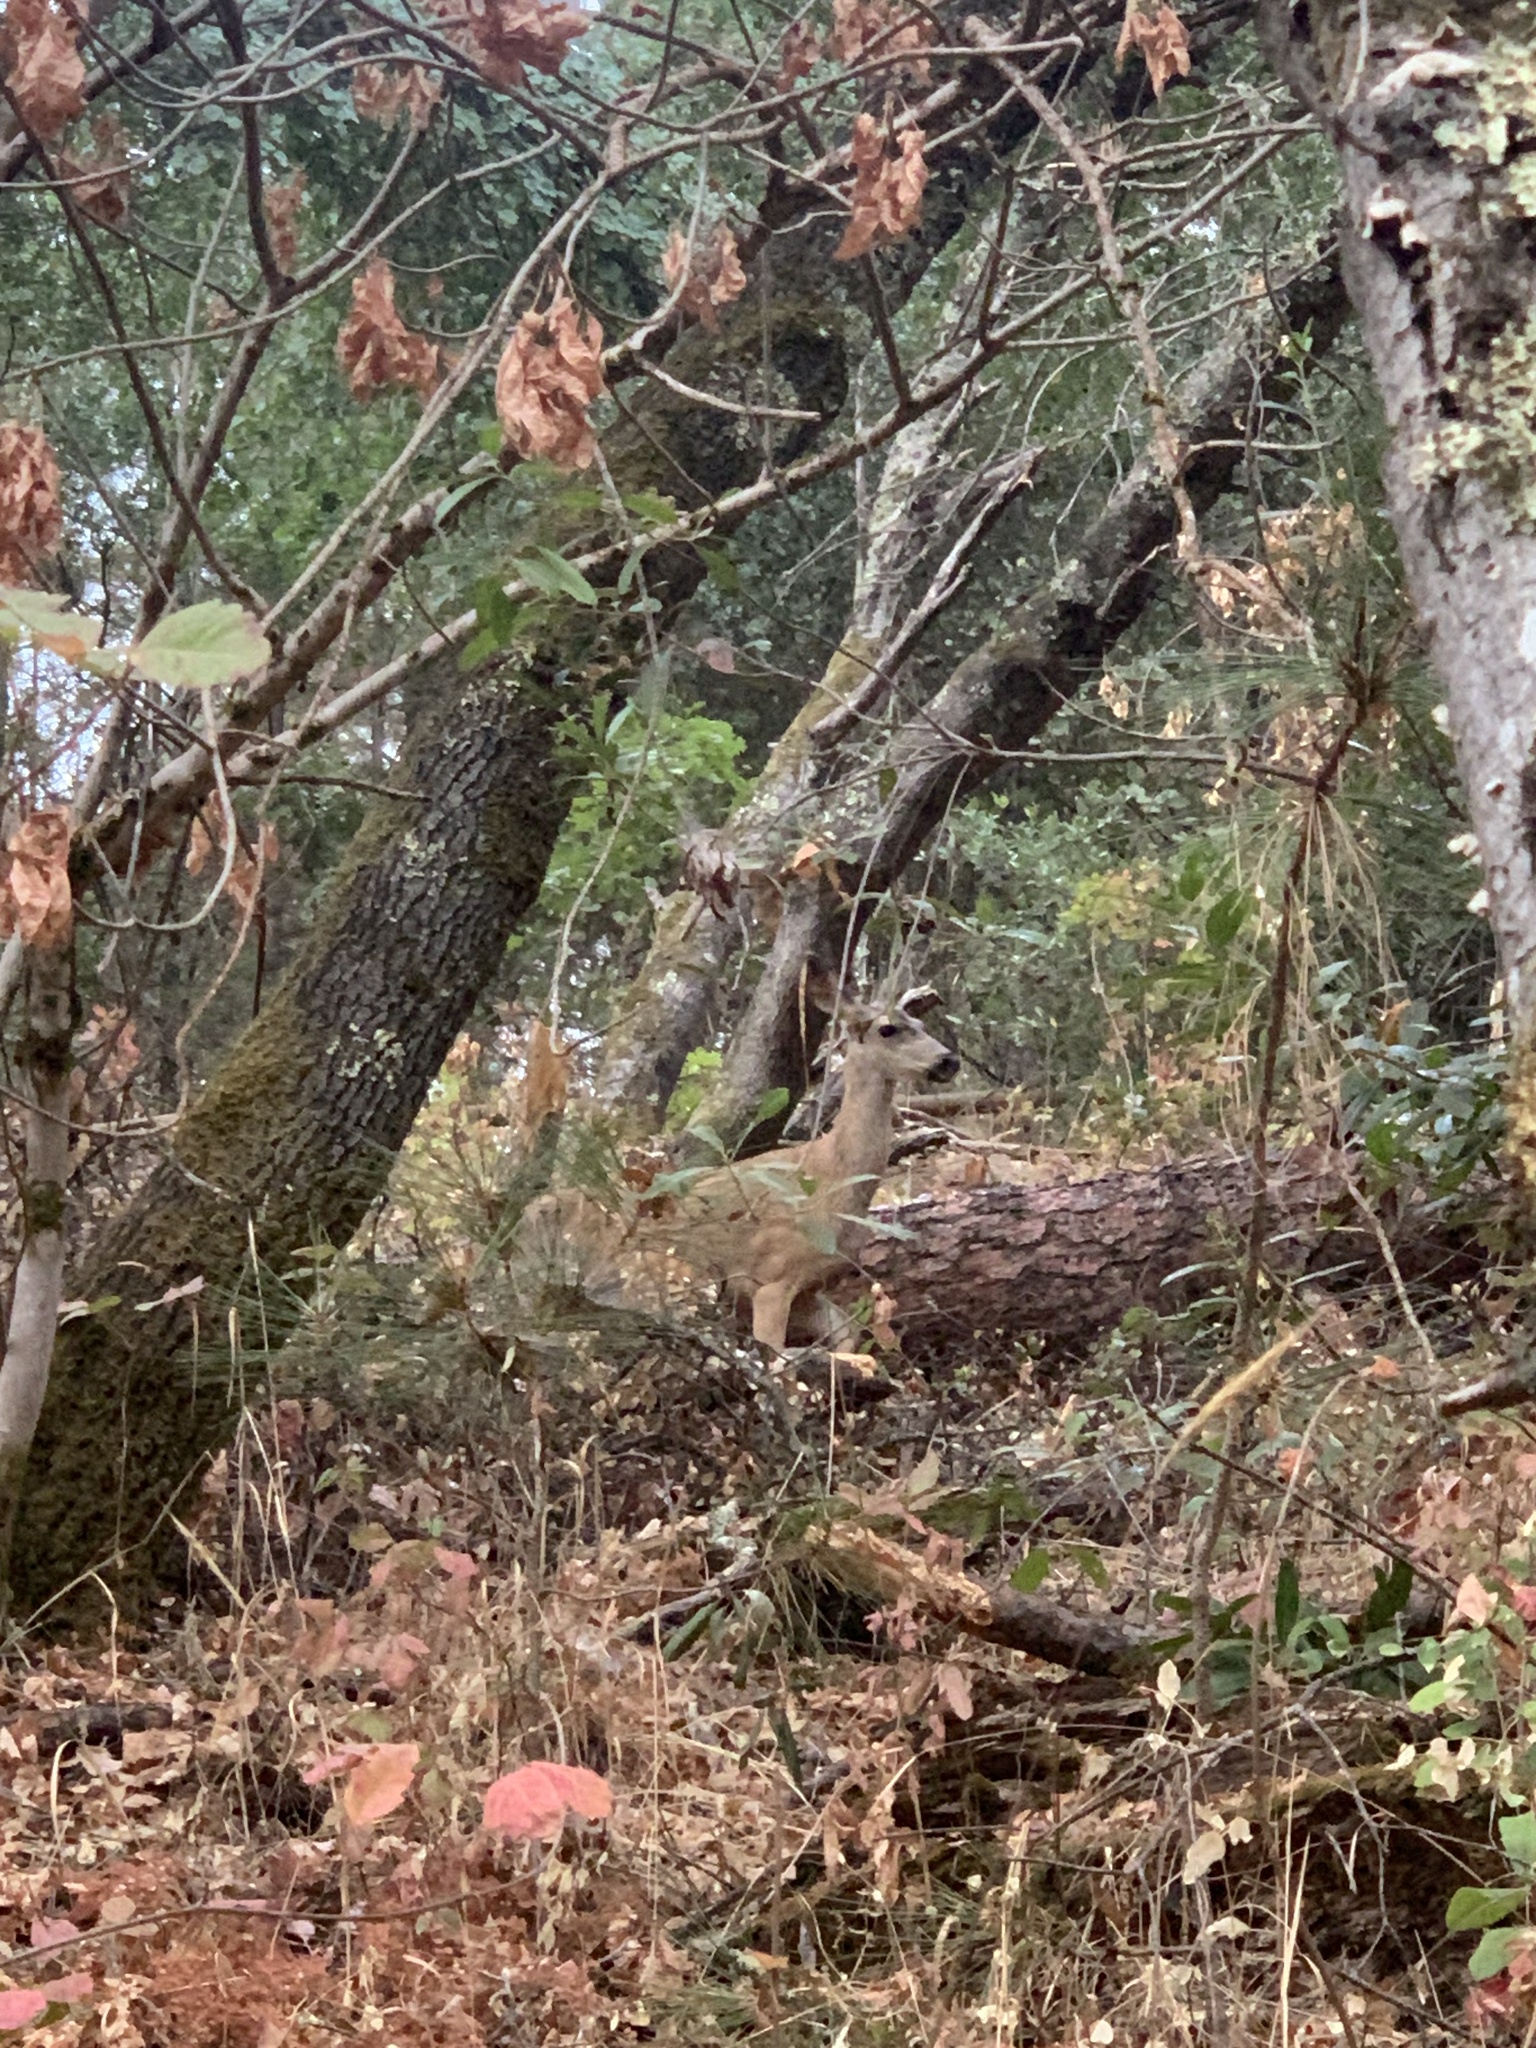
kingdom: Animalia
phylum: Chordata
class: Mammalia
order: Artiodactyla
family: Cervidae
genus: Odocoileus
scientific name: Odocoileus hemionus
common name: Mule deer
